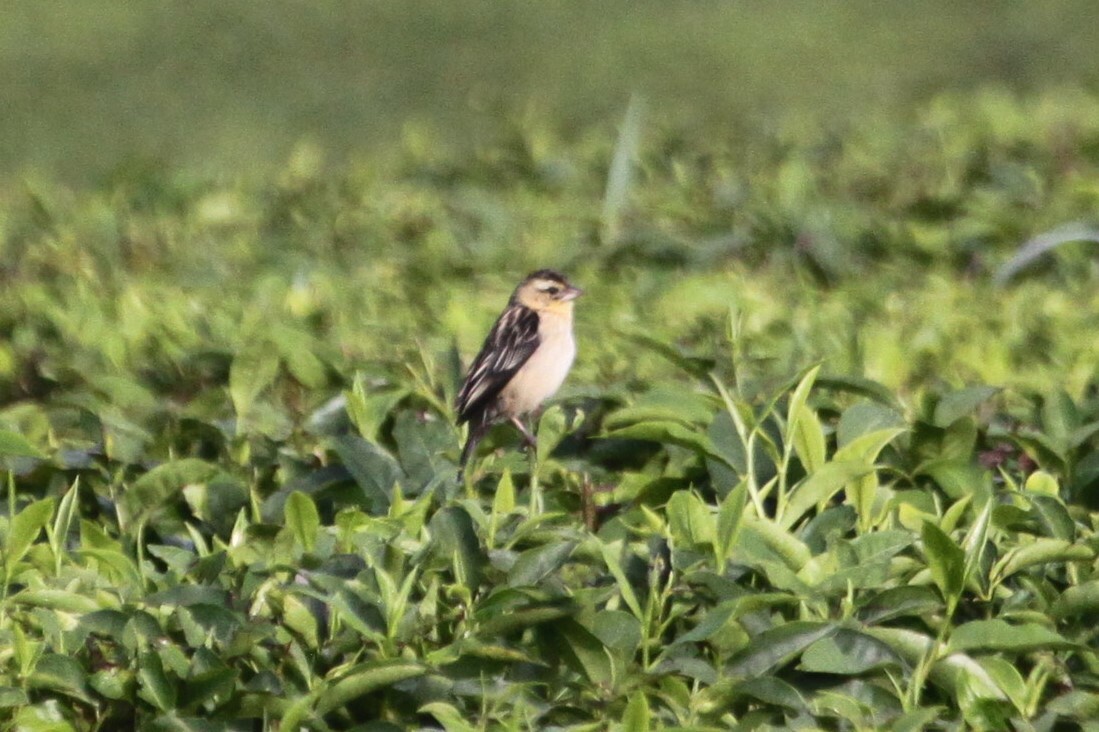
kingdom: Animalia
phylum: Chordata
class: Aves
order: Passeriformes
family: Ploceidae
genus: Euplectes
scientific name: Euplectes macroura
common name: Yellow-mantled widowbird
